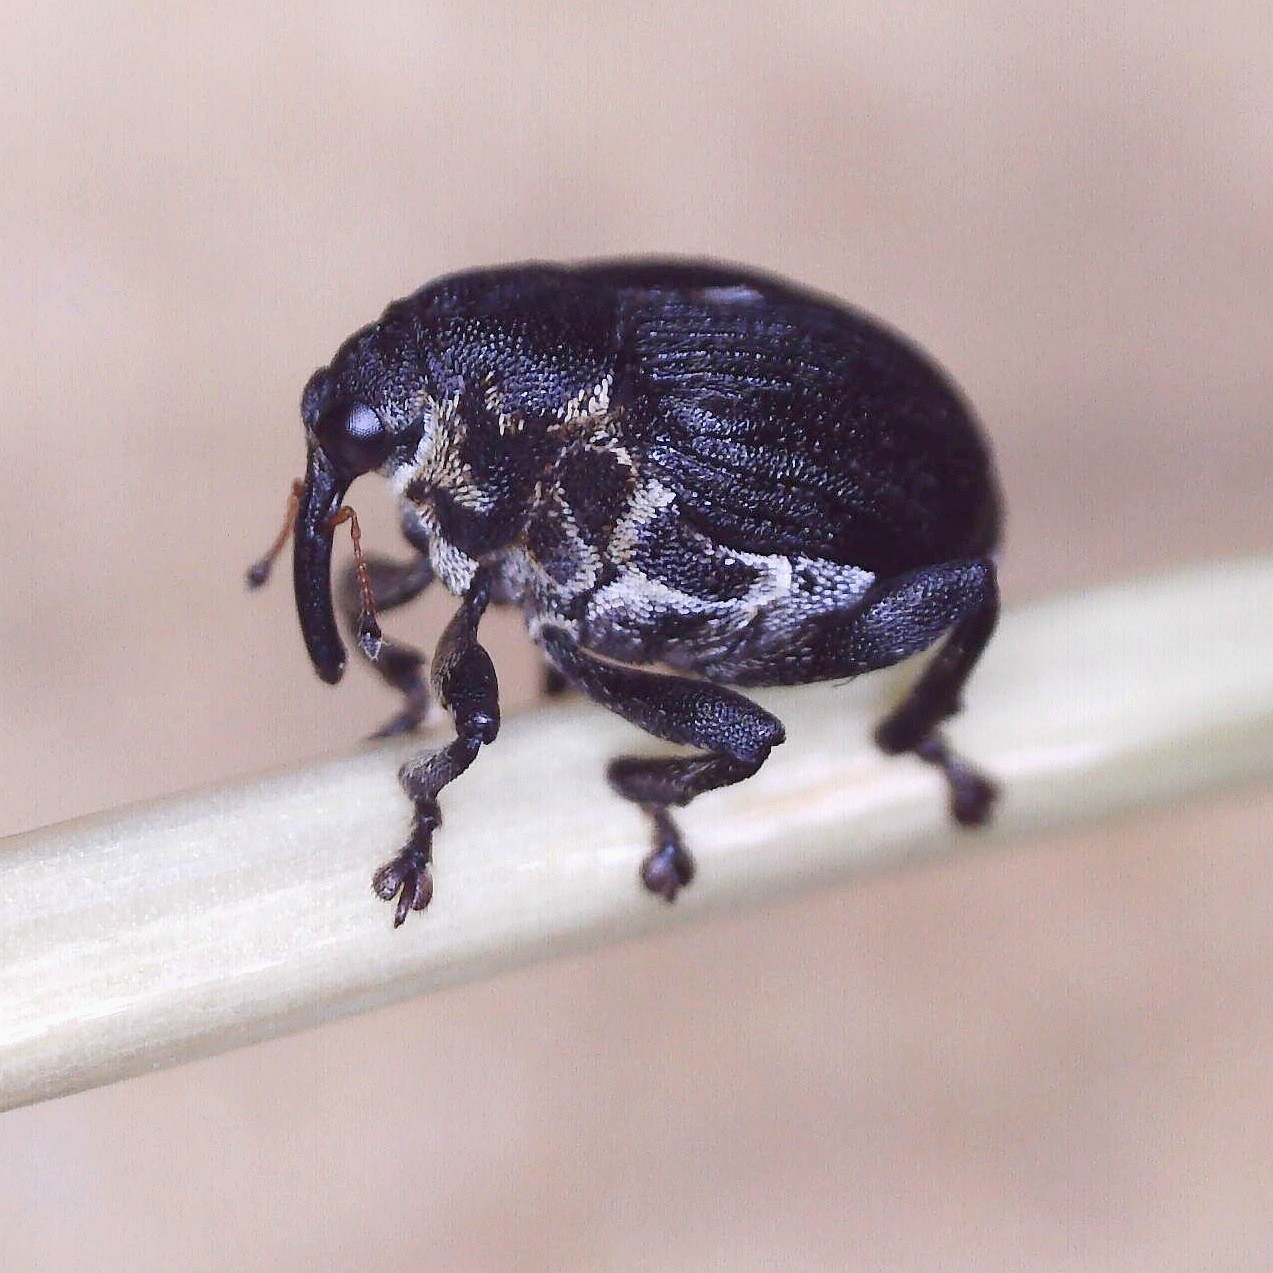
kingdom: Animalia
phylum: Arthropoda
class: Insecta
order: Coleoptera
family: Curculionidae
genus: Mononychus
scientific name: Mononychus punctumalbum
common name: Iris weevil
